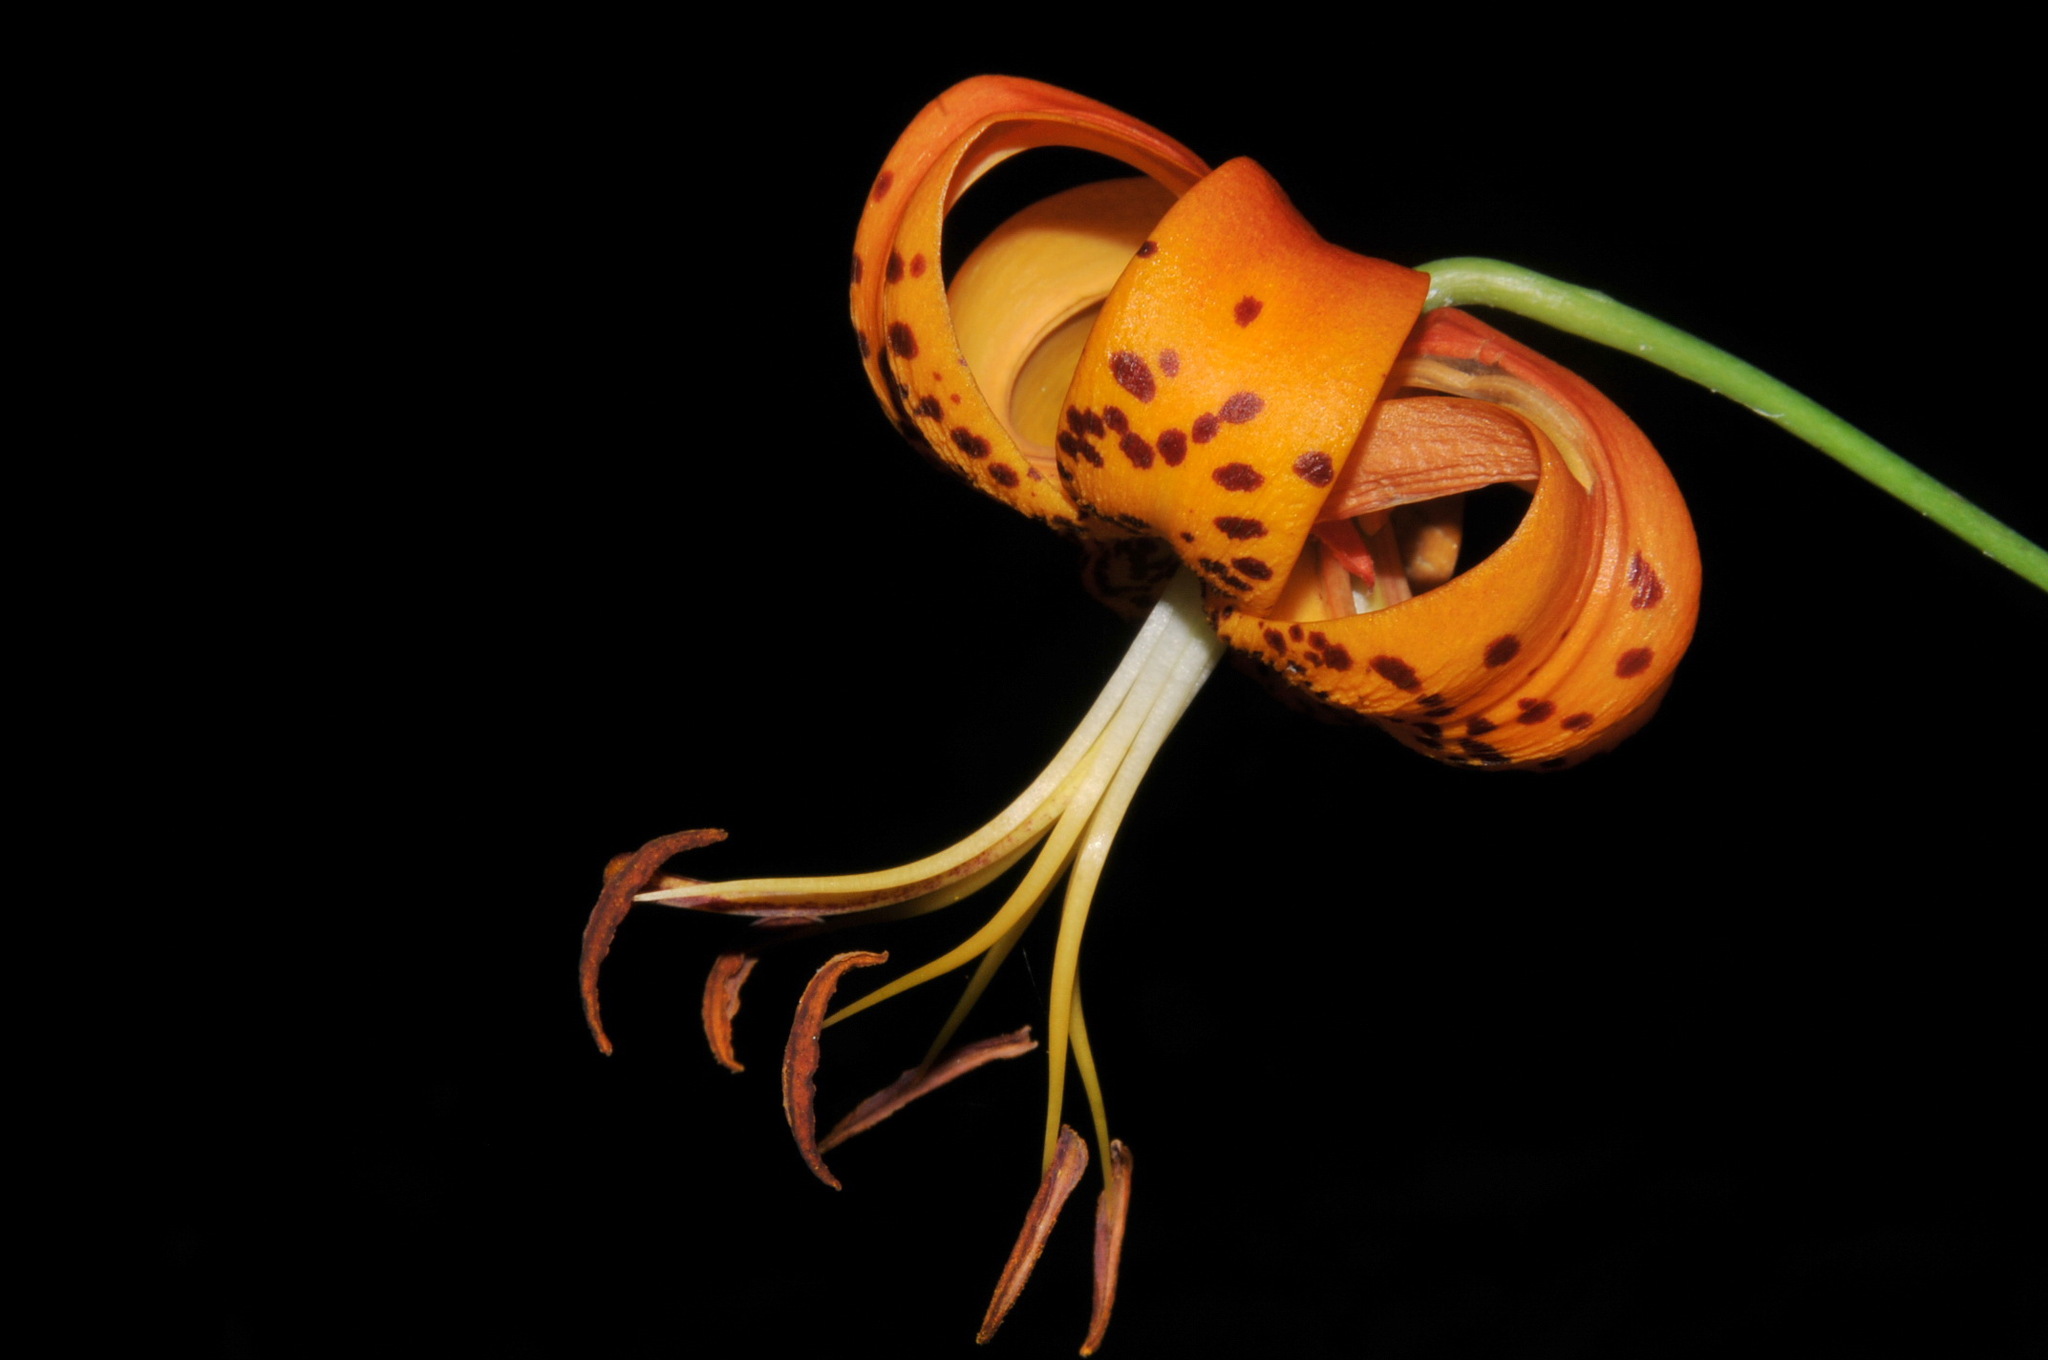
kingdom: Plantae
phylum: Tracheophyta
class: Liliopsida
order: Liliales
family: Liliaceae
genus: Lilium
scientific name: Lilium superbum
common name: American turk's-cap lily
